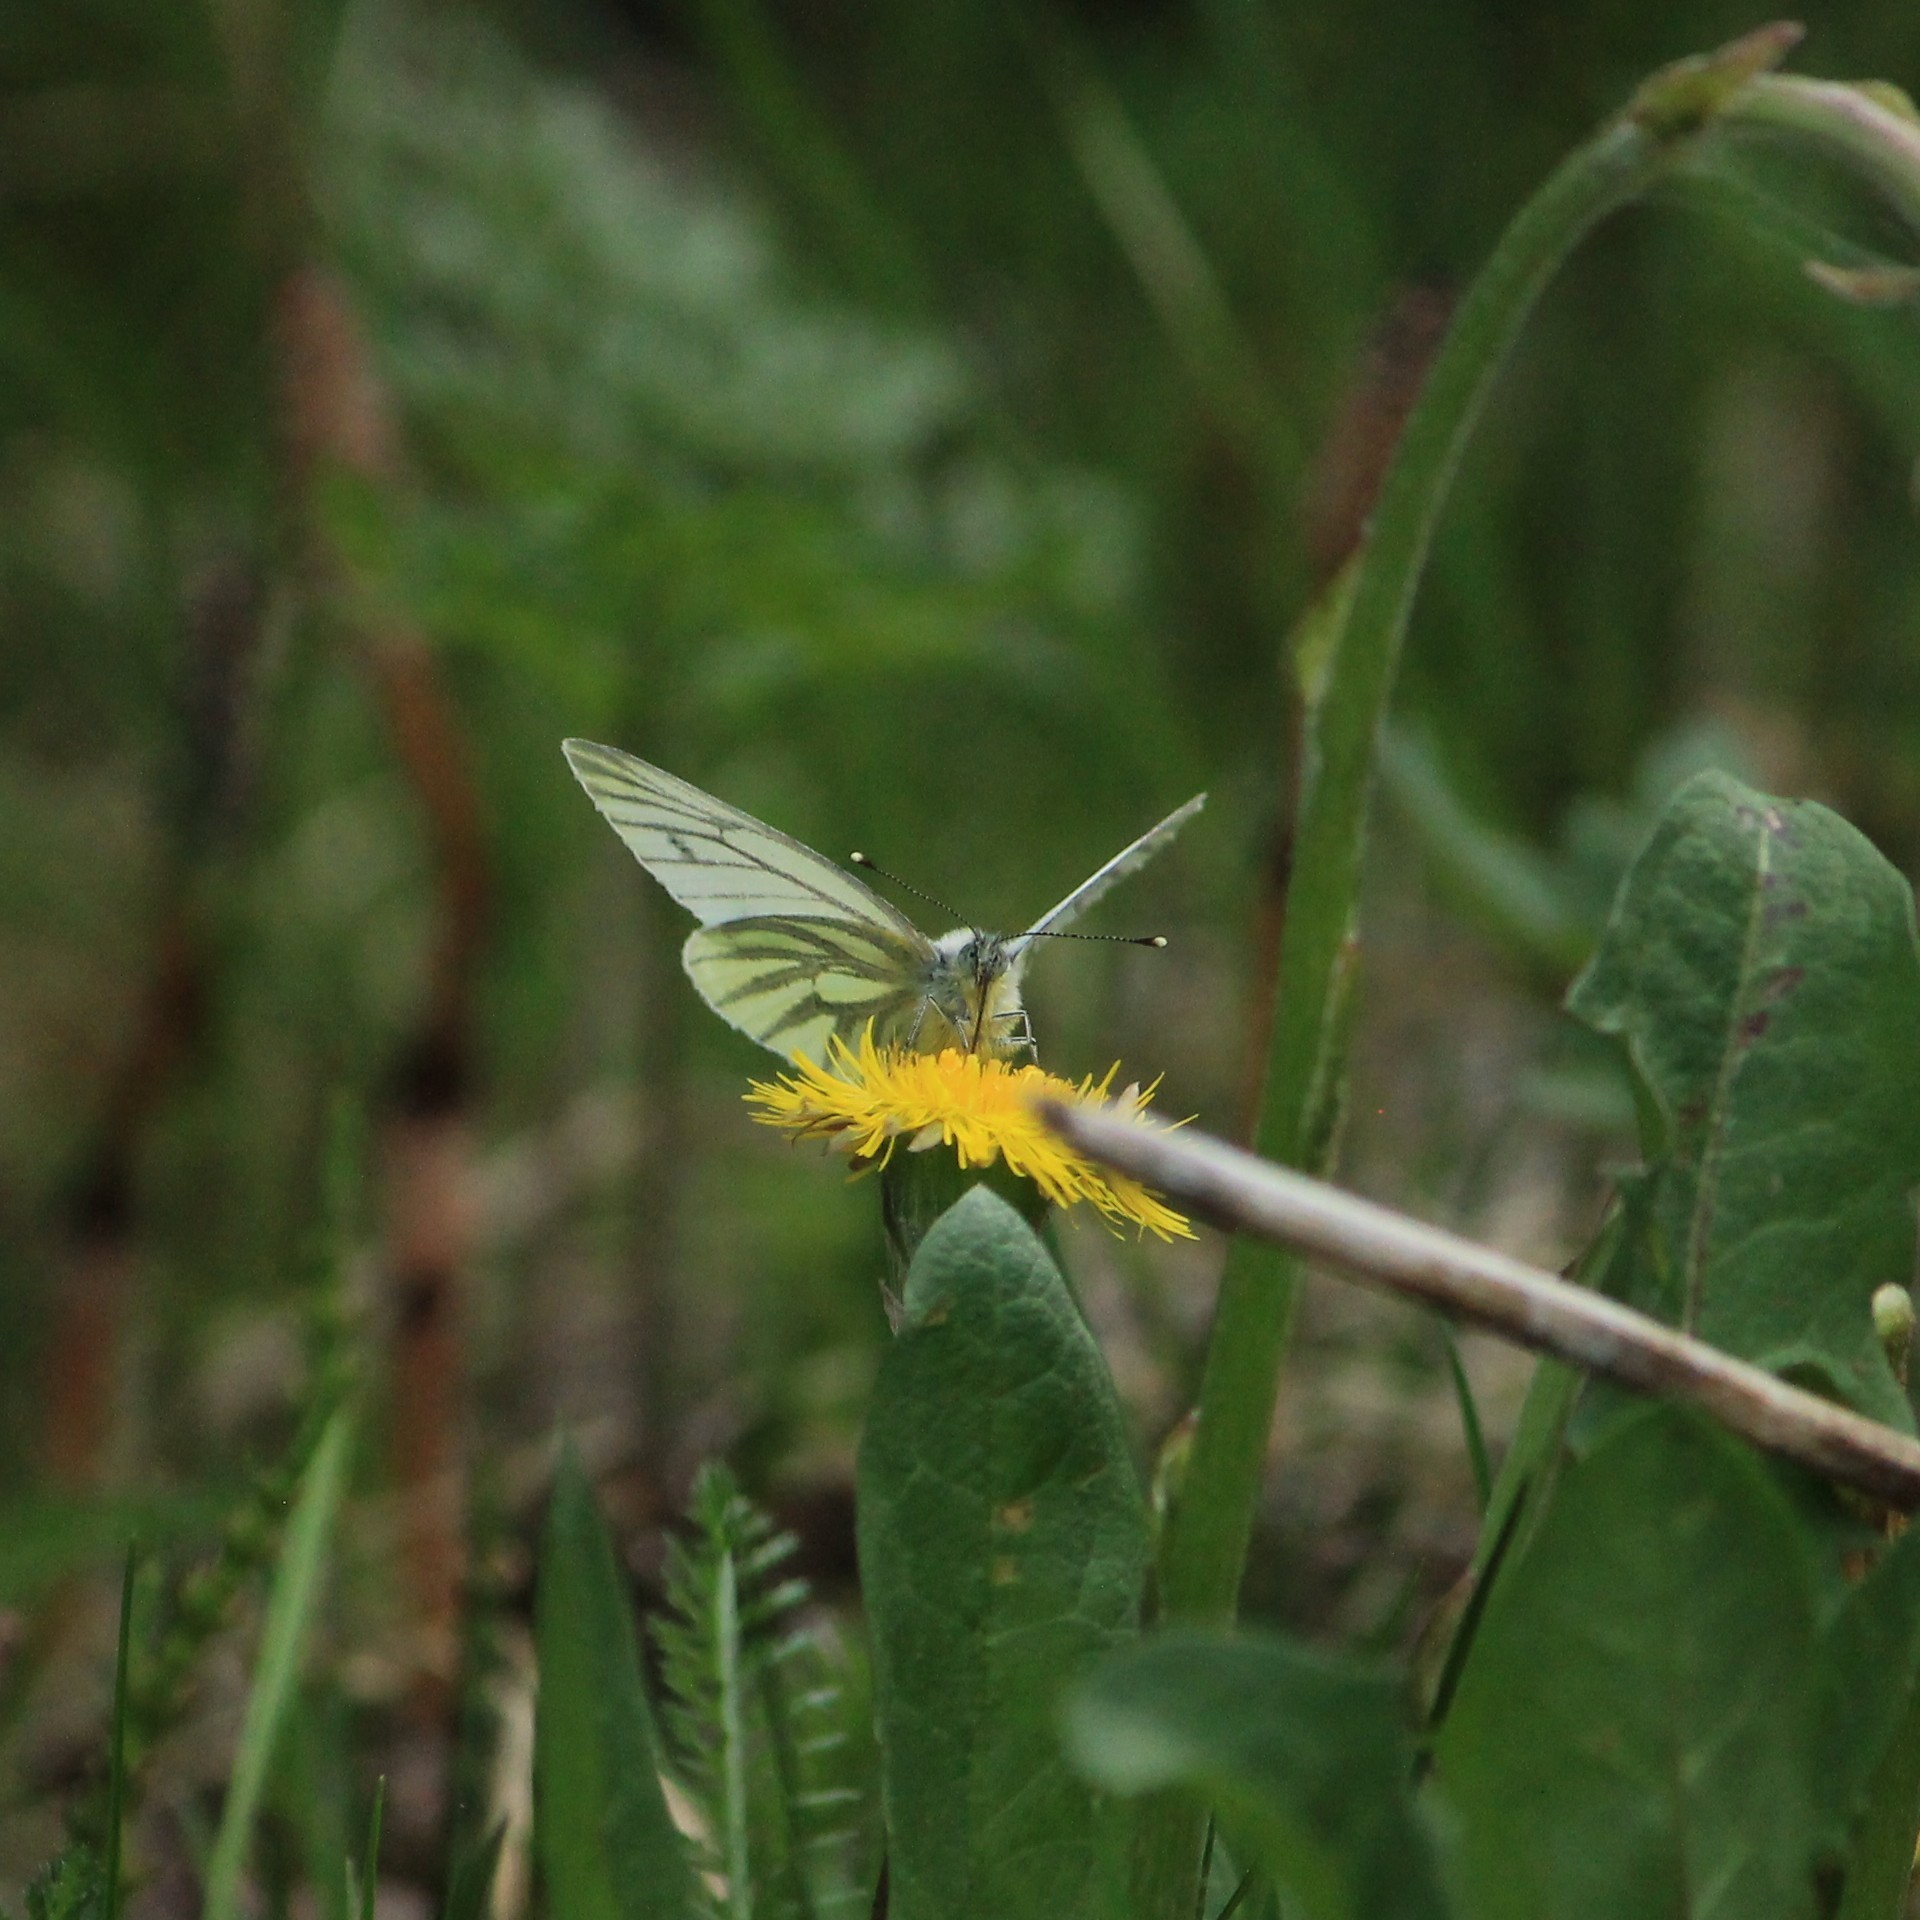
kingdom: Animalia
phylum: Arthropoda
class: Insecta
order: Lepidoptera
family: Pieridae
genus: Pieris
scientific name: Pieris napi
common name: Green-veined white
